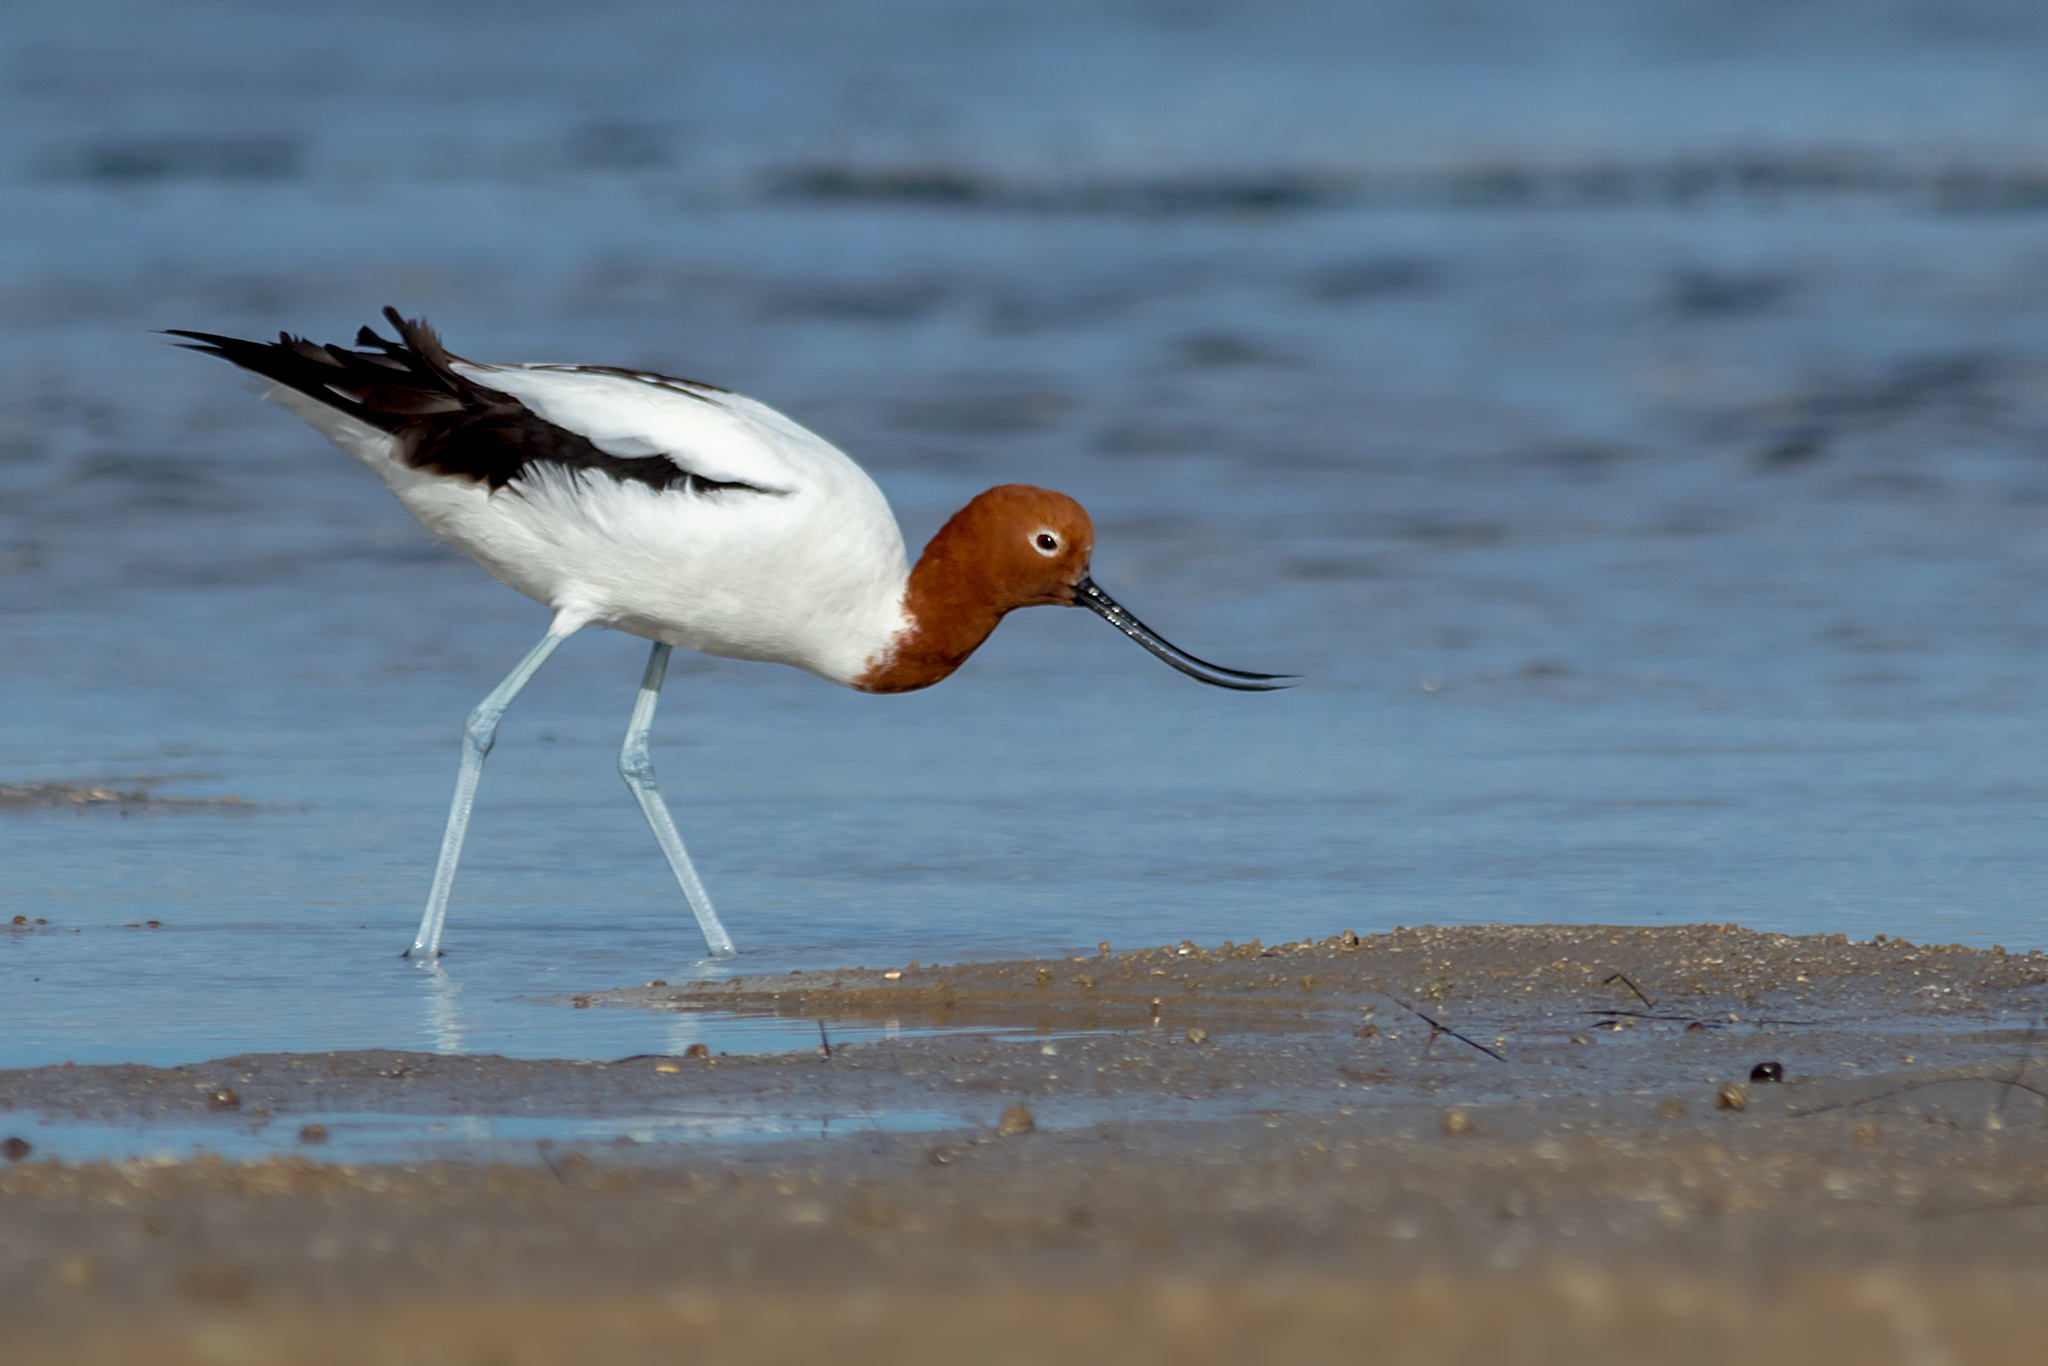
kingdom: Animalia
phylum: Chordata
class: Aves
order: Charadriiformes
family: Recurvirostridae
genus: Recurvirostra
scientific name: Recurvirostra novaehollandiae
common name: Red-necked avocet
